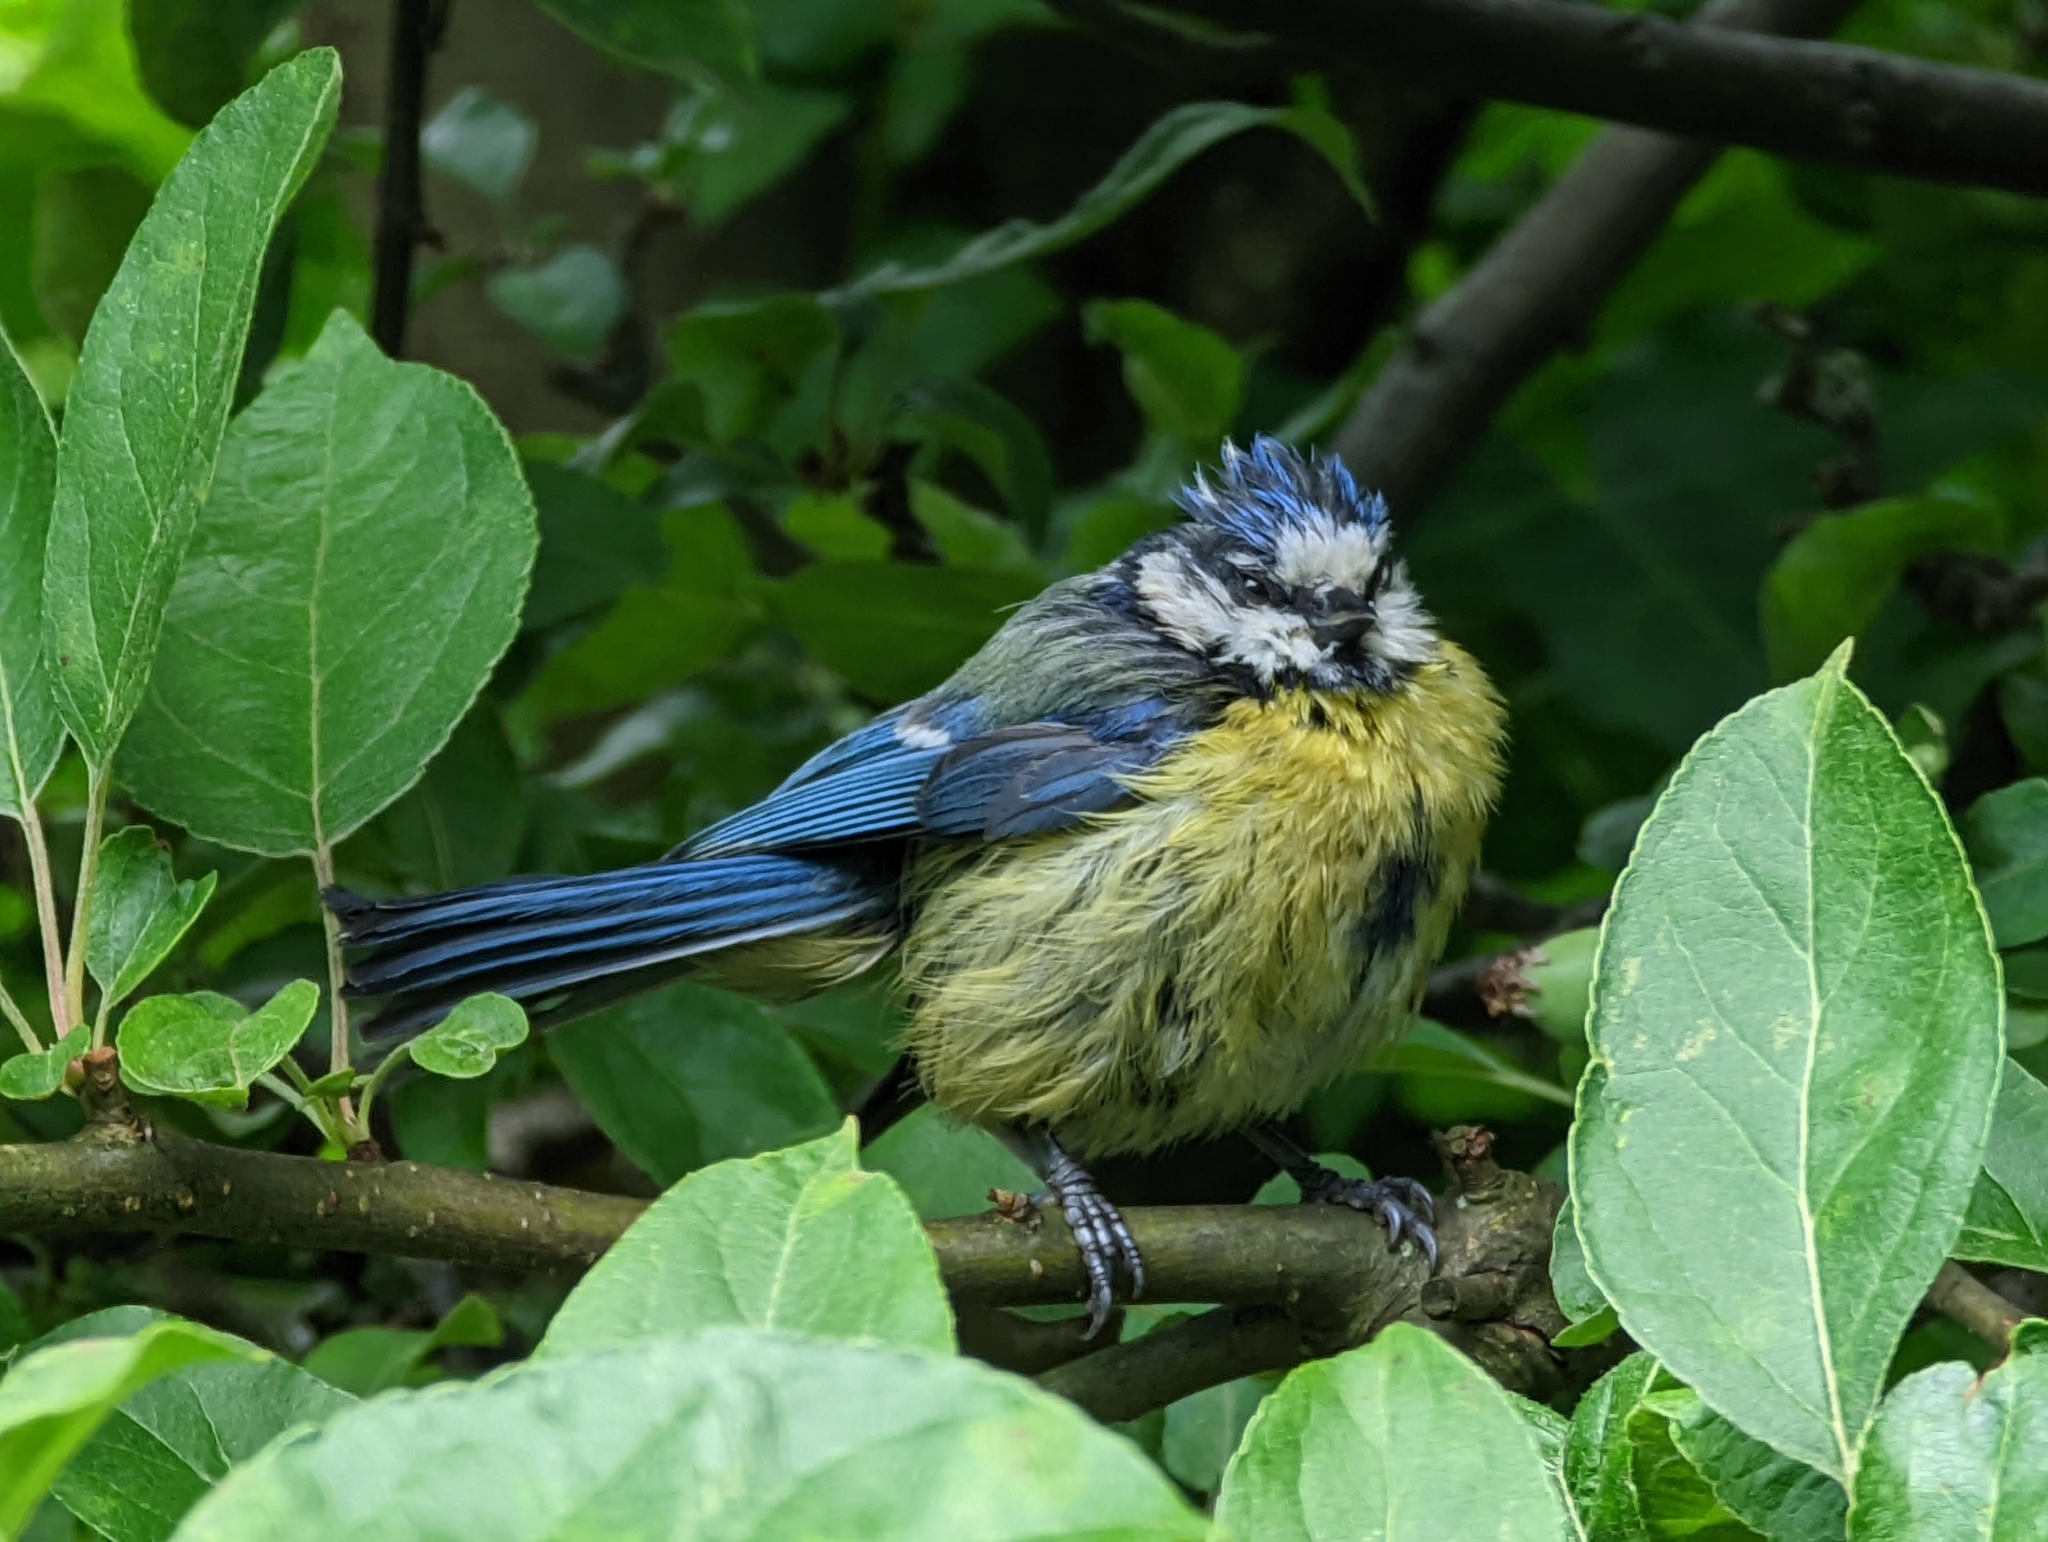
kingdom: Animalia
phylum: Chordata
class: Aves
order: Passeriformes
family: Paridae
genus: Cyanistes
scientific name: Cyanistes caeruleus
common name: Eurasian blue tit
